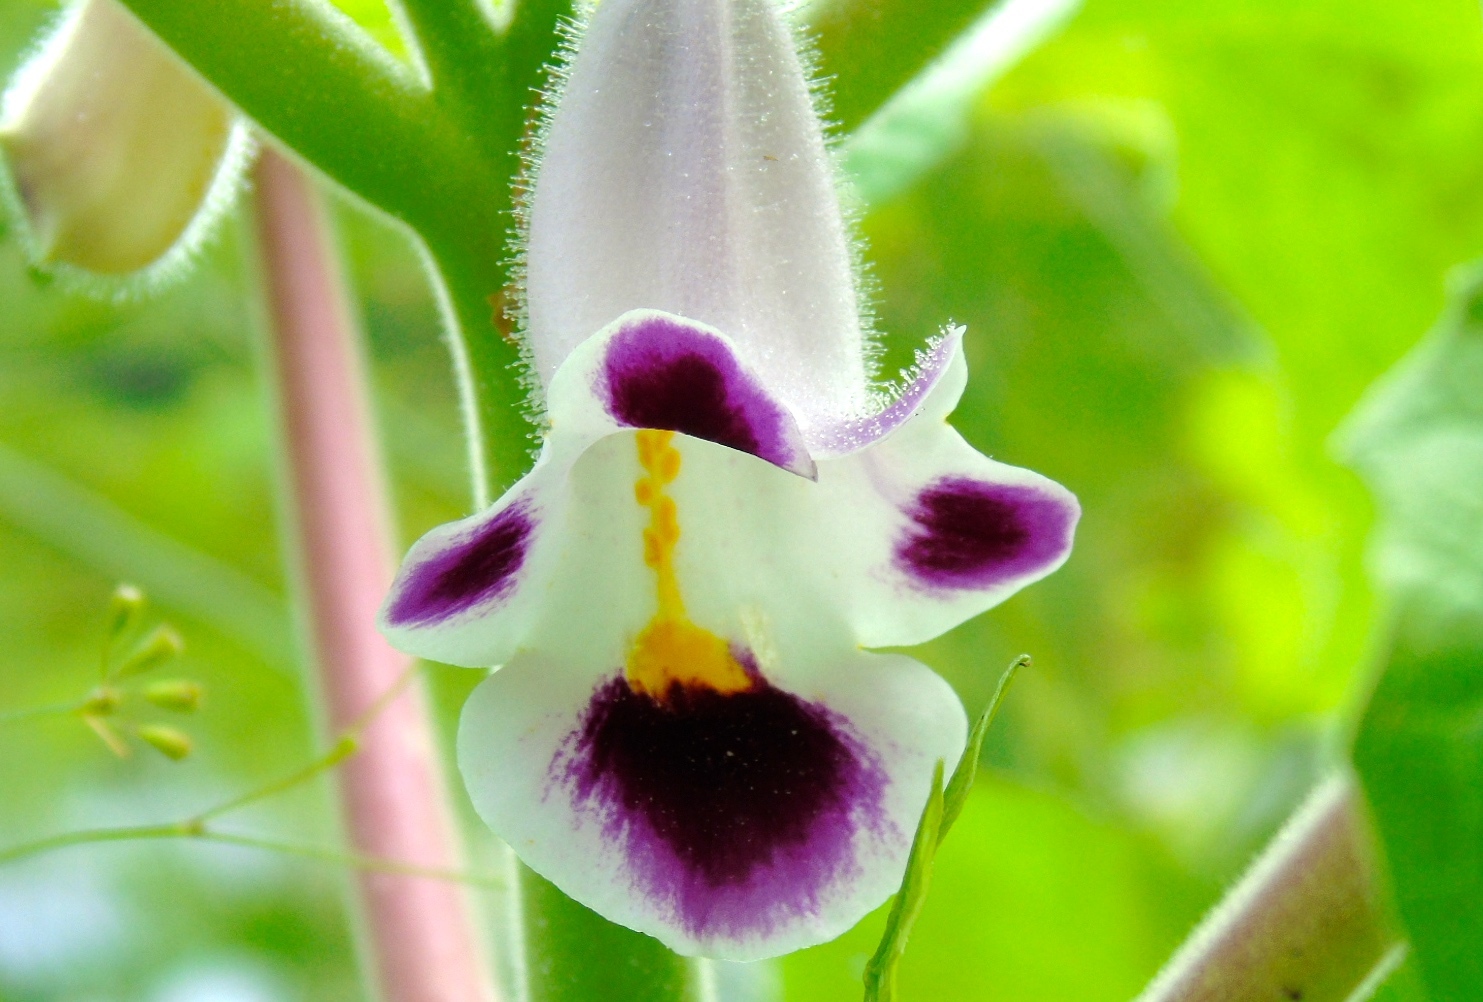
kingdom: Plantae
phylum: Tracheophyta
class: Magnoliopsida
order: Lamiales
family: Martyniaceae
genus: Martynia
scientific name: Martynia annua
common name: Tiger's-claw
